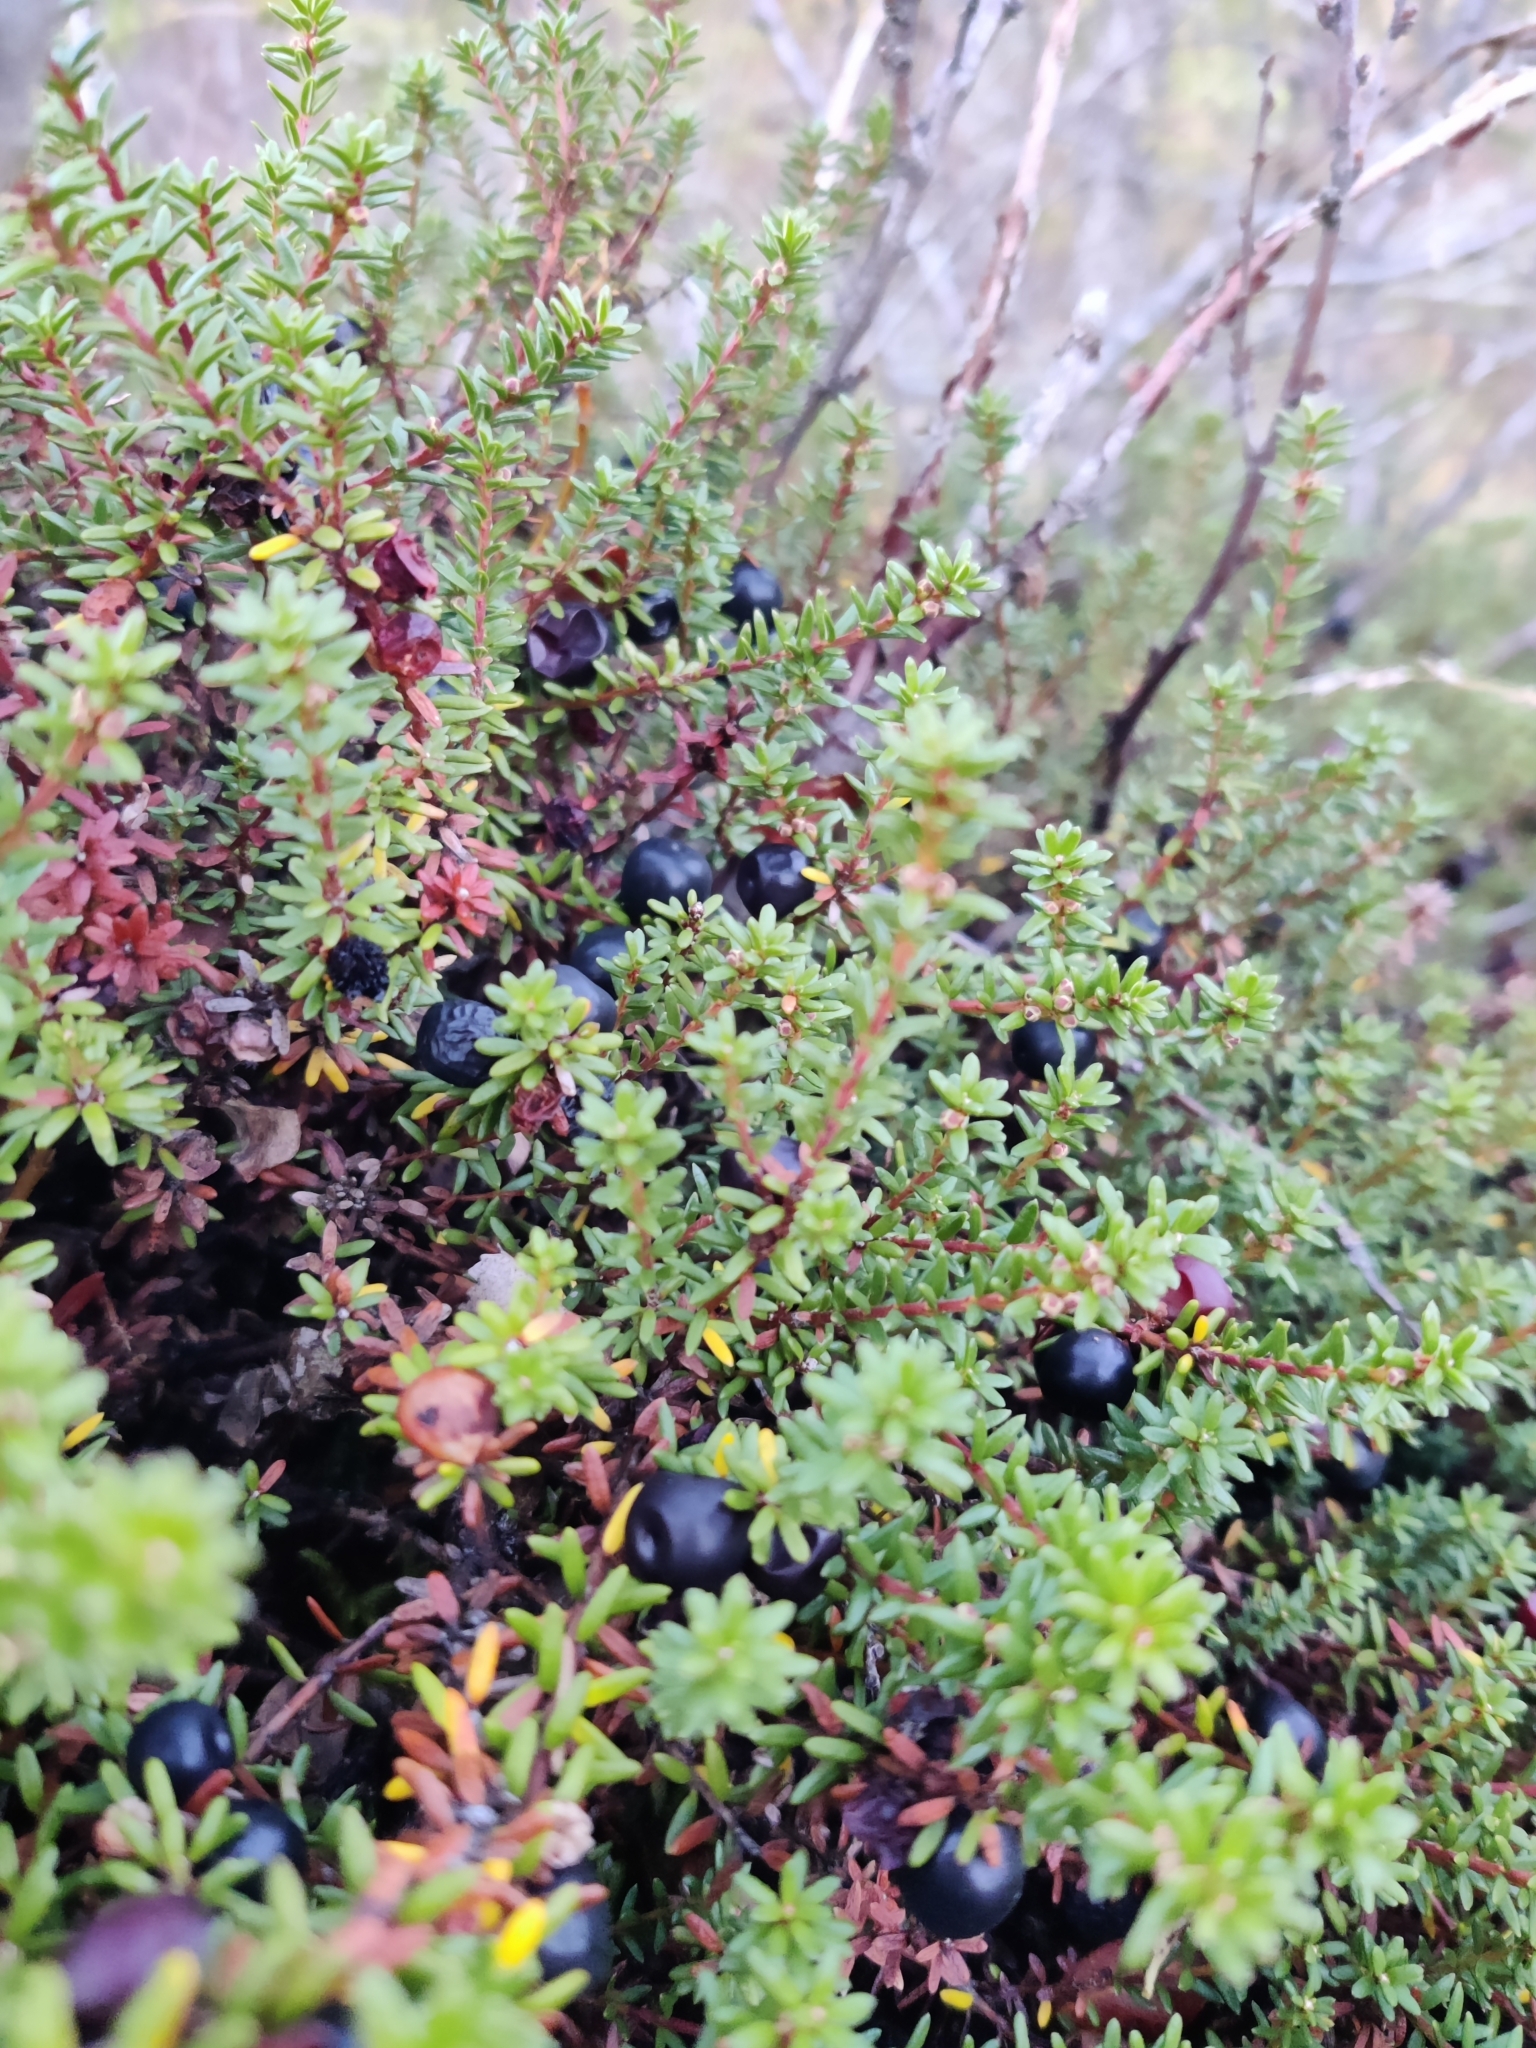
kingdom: Plantae
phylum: Tracheophyta
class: Magnoliopsida
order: Ericales
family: Ericaceae
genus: Empetrum
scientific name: Empetrum nigrum
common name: Black crowberry
